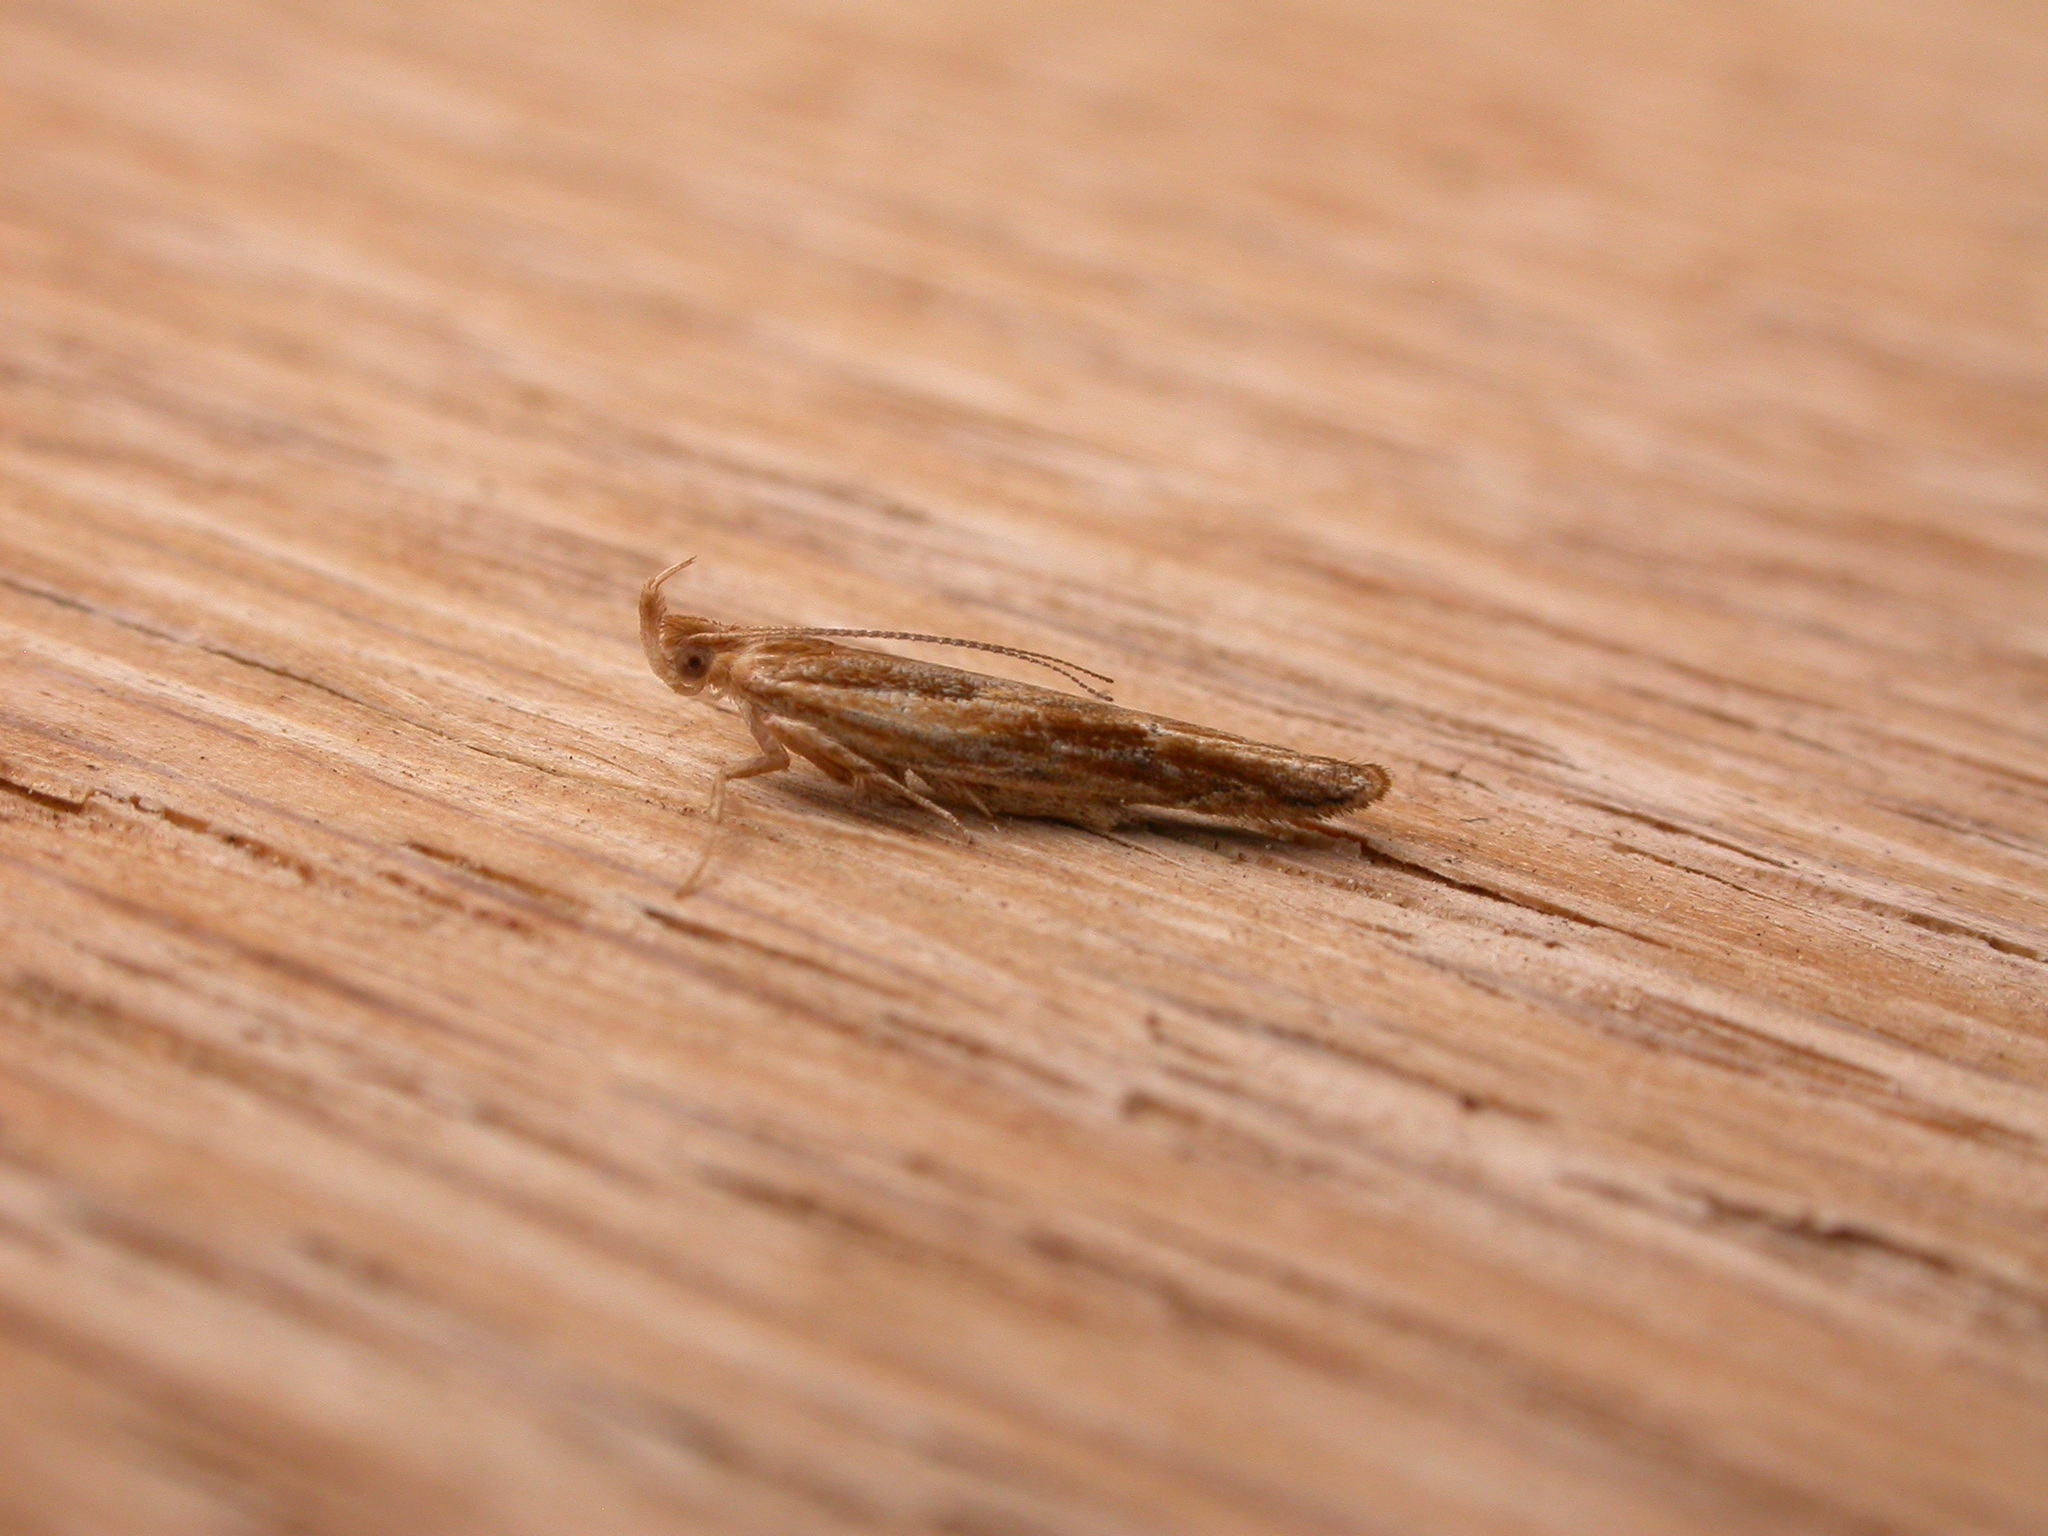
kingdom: Animalia
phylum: Arthropoda
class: Insecta
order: Lepidoptera
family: Depressariidae
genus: Eutorna
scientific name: Eutorna tricasis
